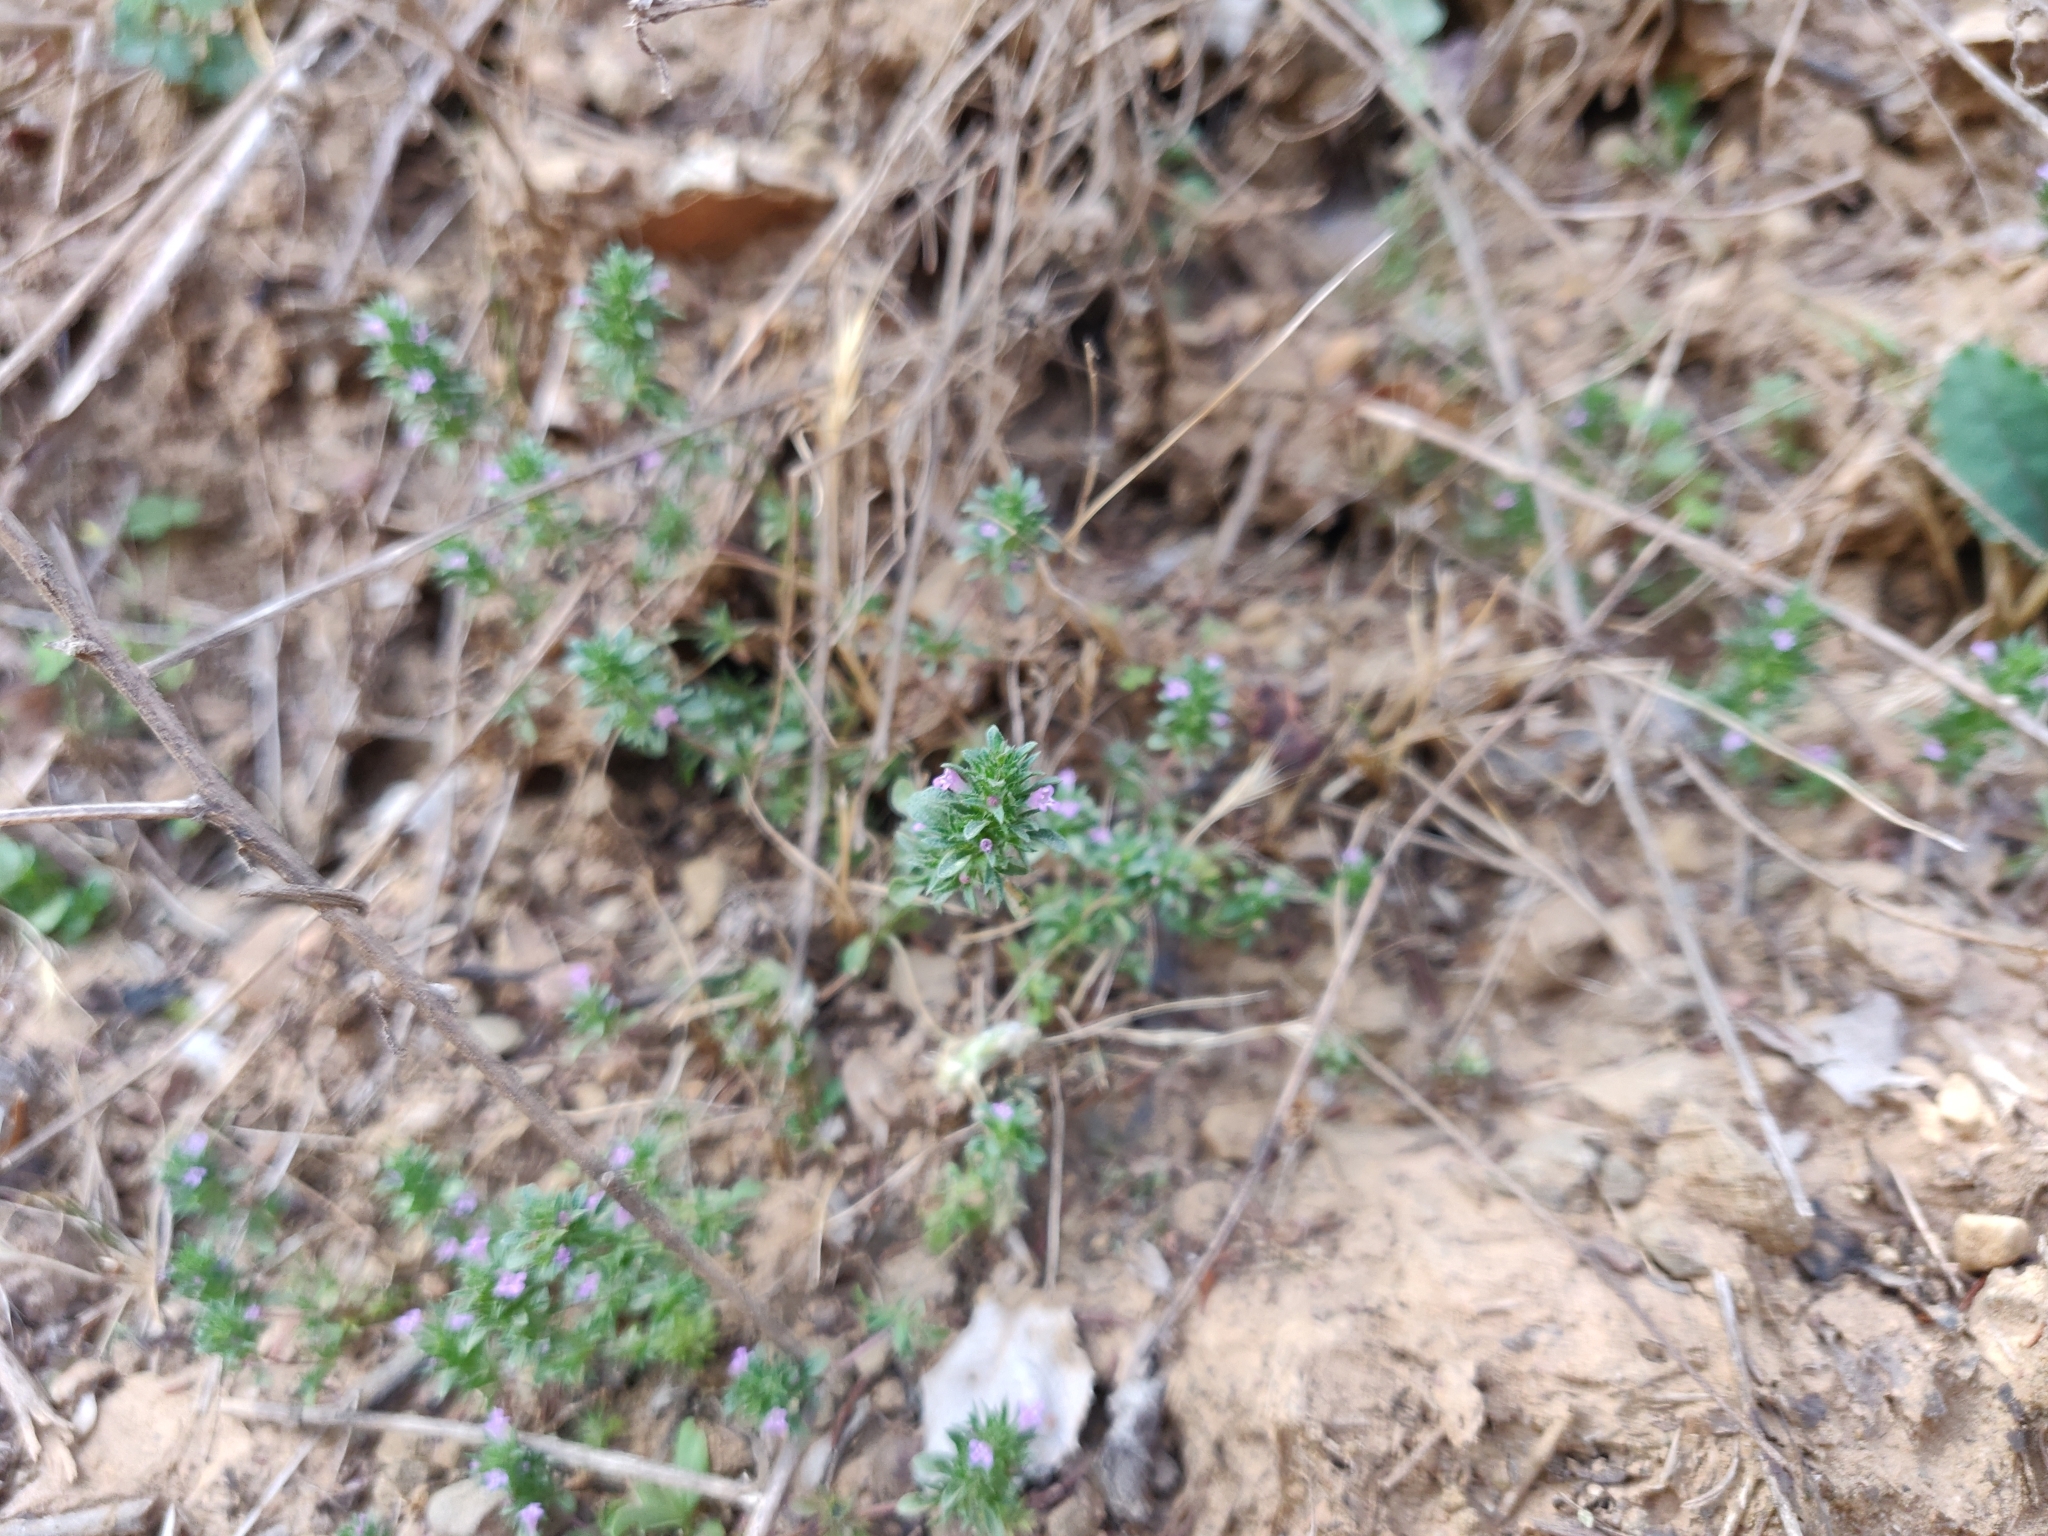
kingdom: Plantae
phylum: Tracheophyta
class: Magnoliopsida
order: Lamiales
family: Lamiaceae
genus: Pogogyne
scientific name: Pogogyne serpylloides
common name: Thymeleaf mesamint
